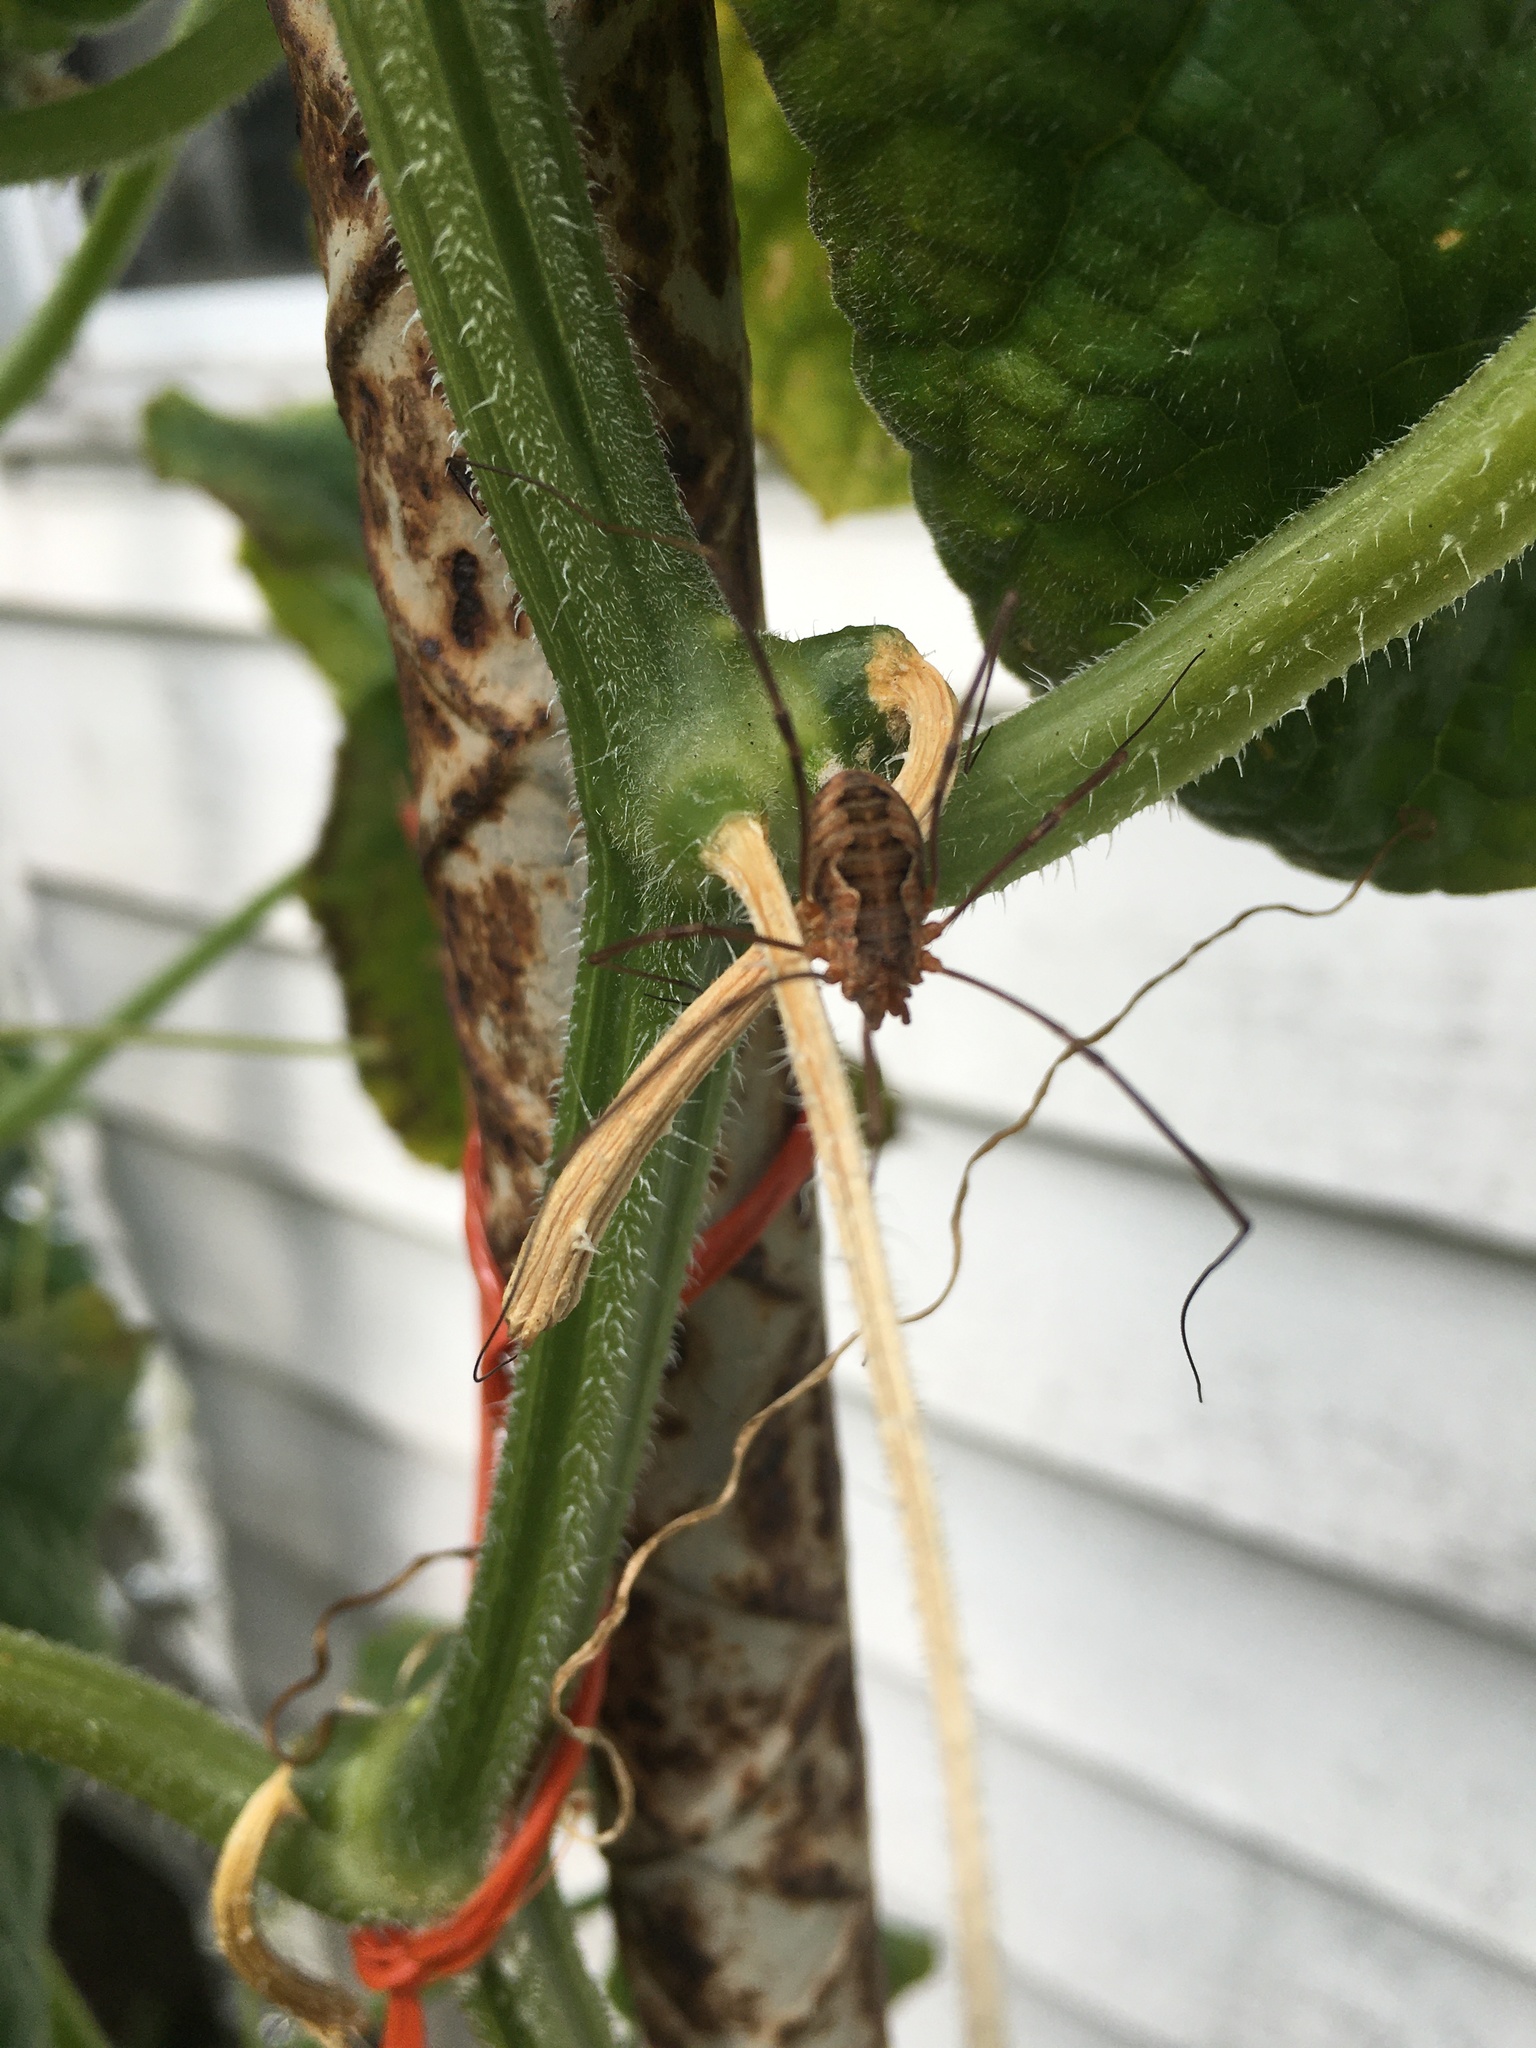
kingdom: Animalia
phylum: Arthropoda
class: Arachnida
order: Opiliones
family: Phalangiidae
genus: Phalangium
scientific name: Phalangium opilio
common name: Daddy longleg
